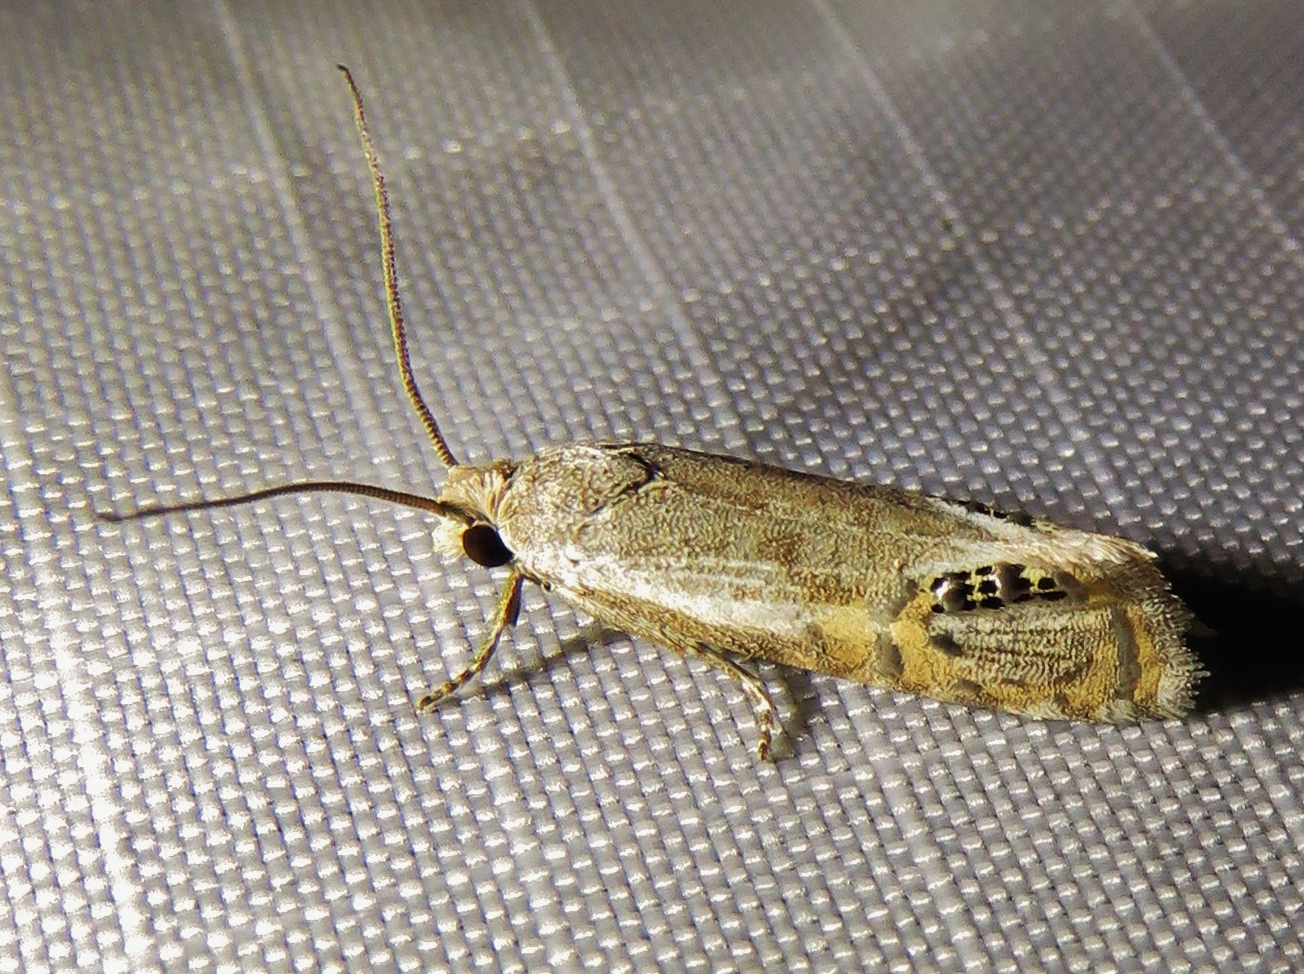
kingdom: Animalia
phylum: Arthropoda
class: Insecta
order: Lepidoptera
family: Tortricidae
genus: Pelochrista
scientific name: Pelochrista scintillana
